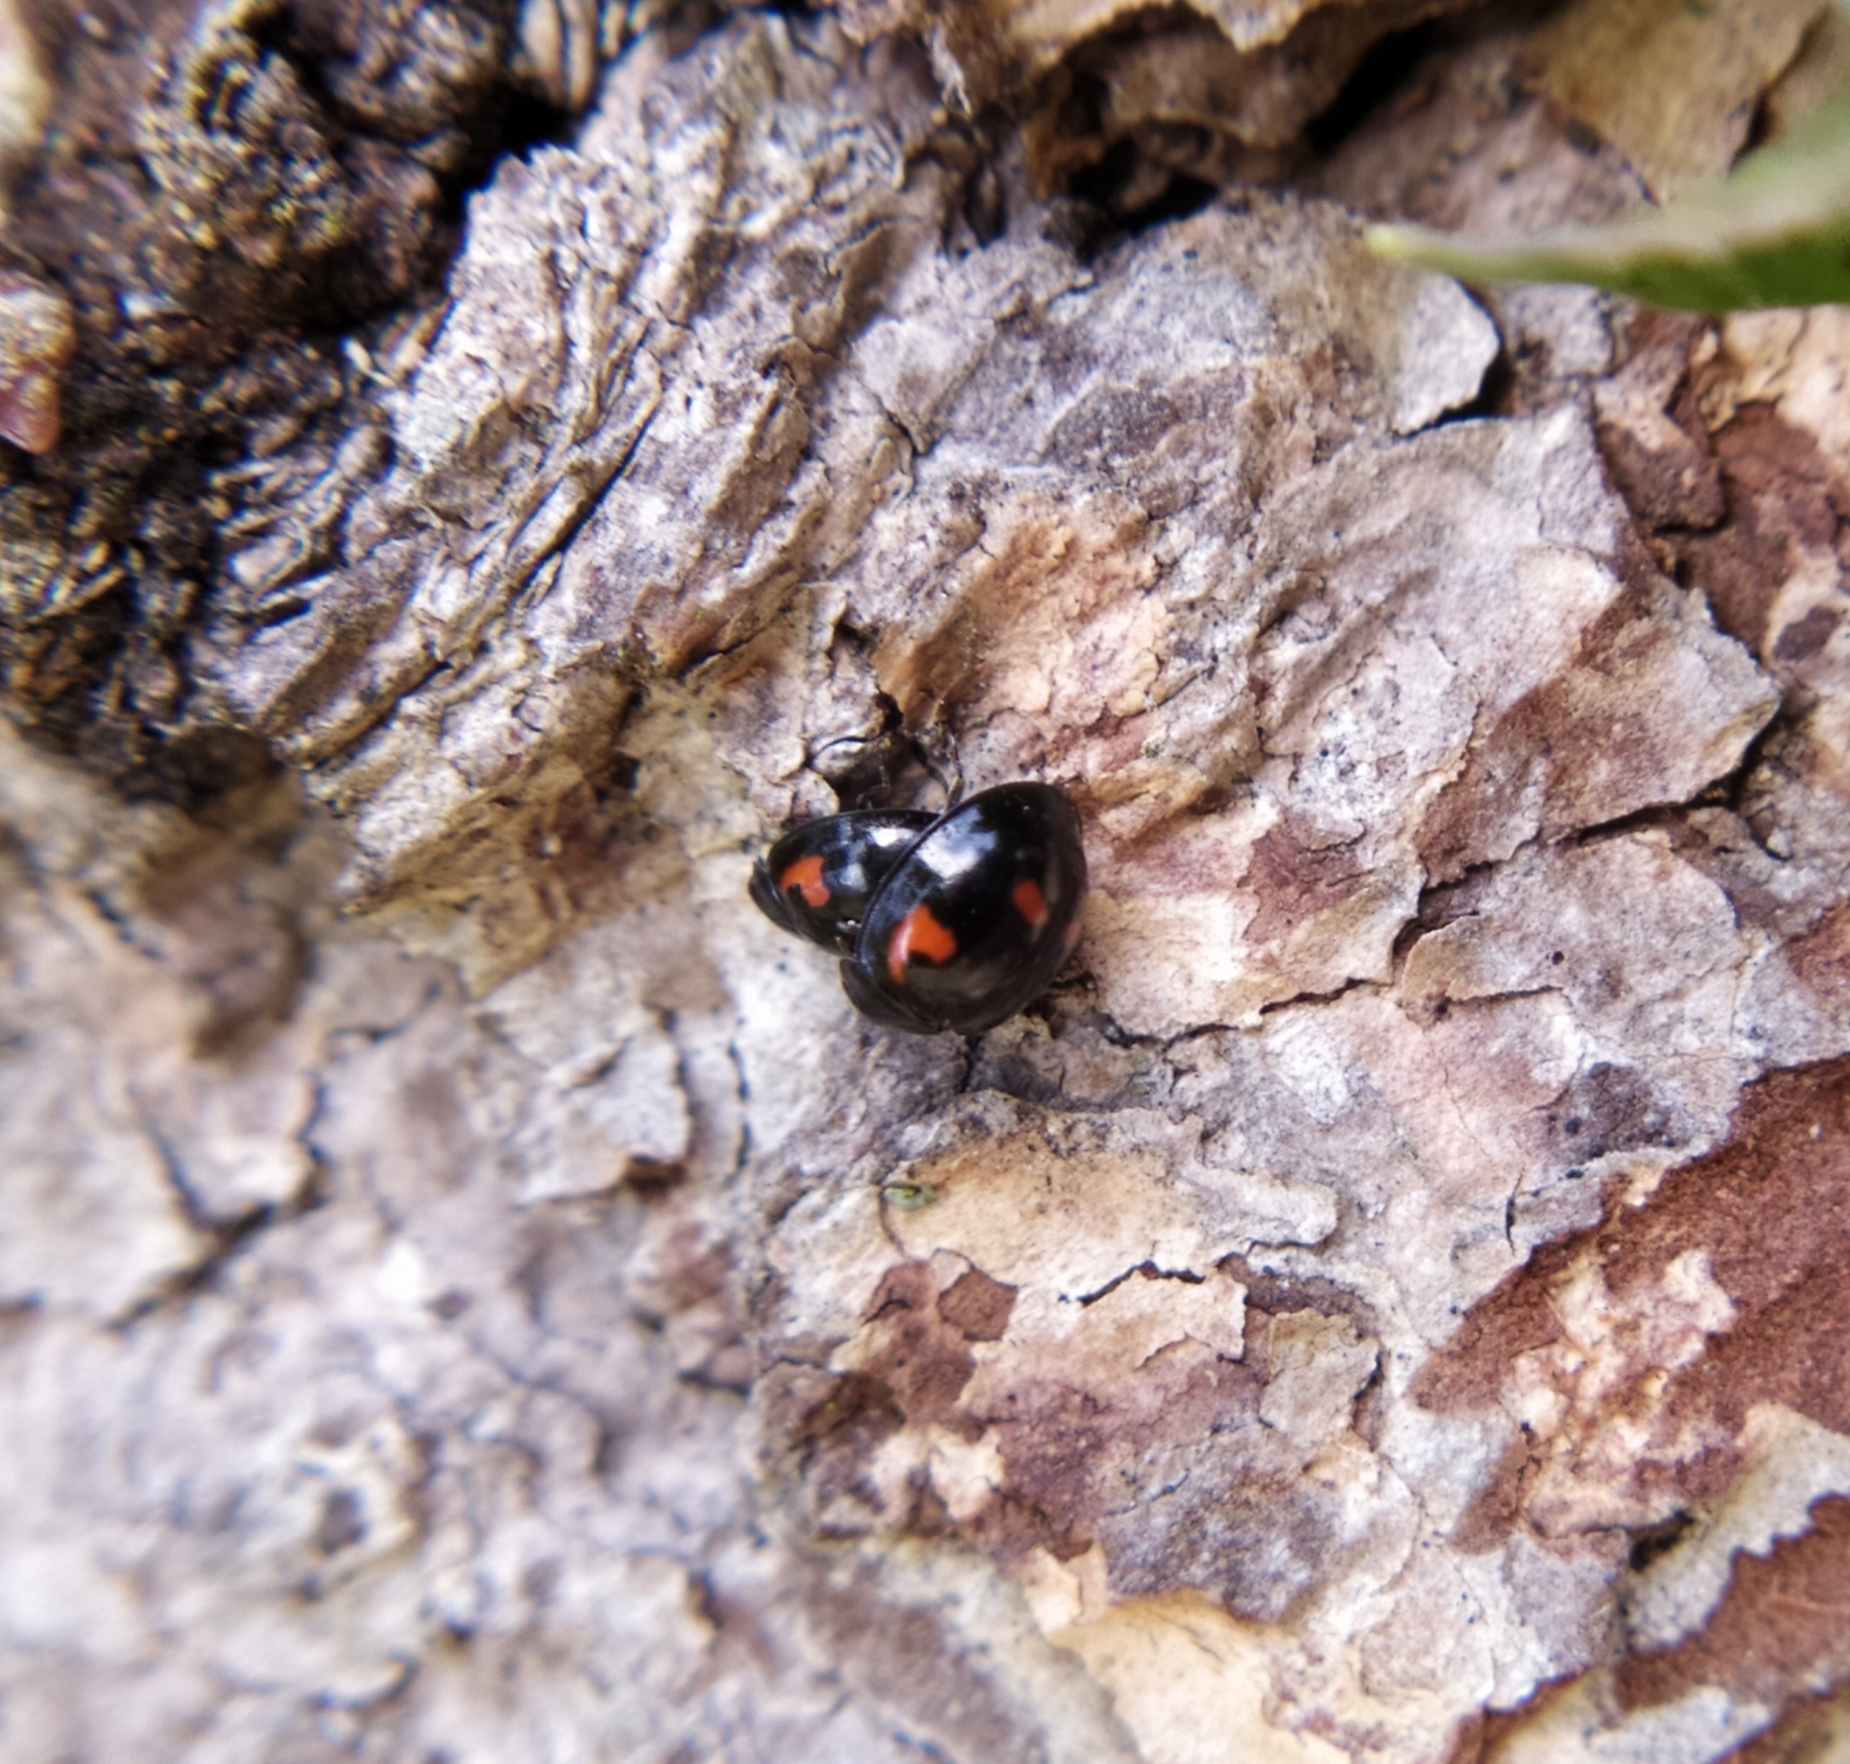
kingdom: Animalia
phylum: Arthropoda
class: Insecta
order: Coleoptera
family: Coccinellidae
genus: Brumus
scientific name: Brumus quadripustulatus
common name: Ladybird beetle
